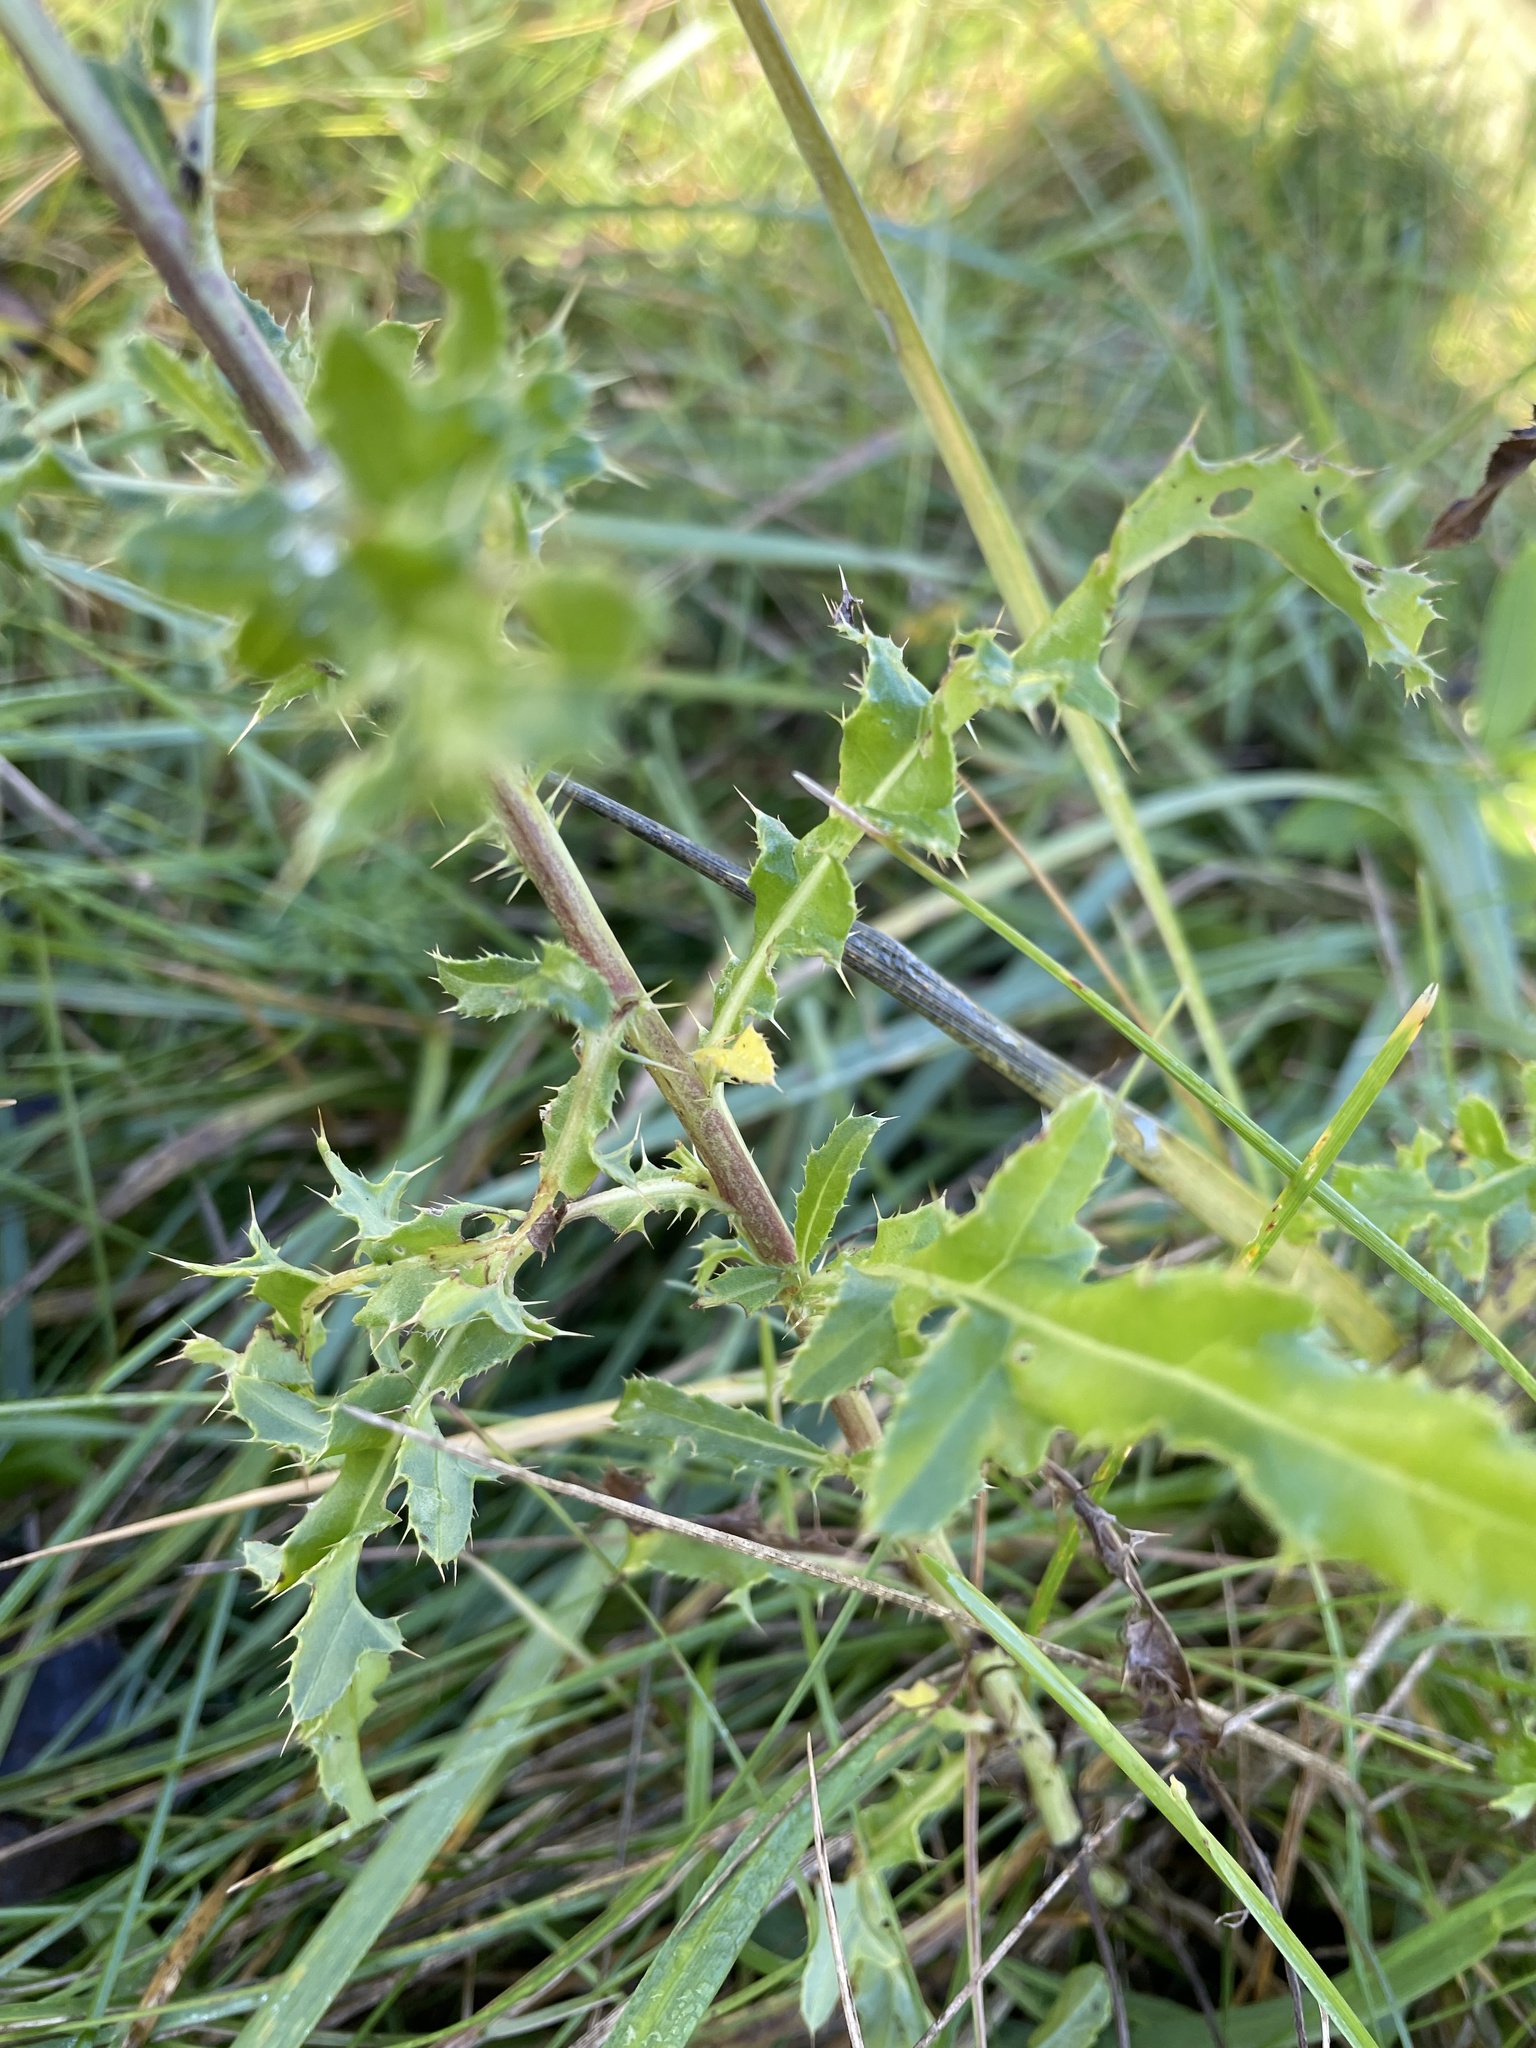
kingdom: Plantae
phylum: Tracheophyta
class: Magnoliopsida
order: Asterales
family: Asteraceae
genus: Cirsium
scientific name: Cirsium arvense
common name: Creeping thistle
